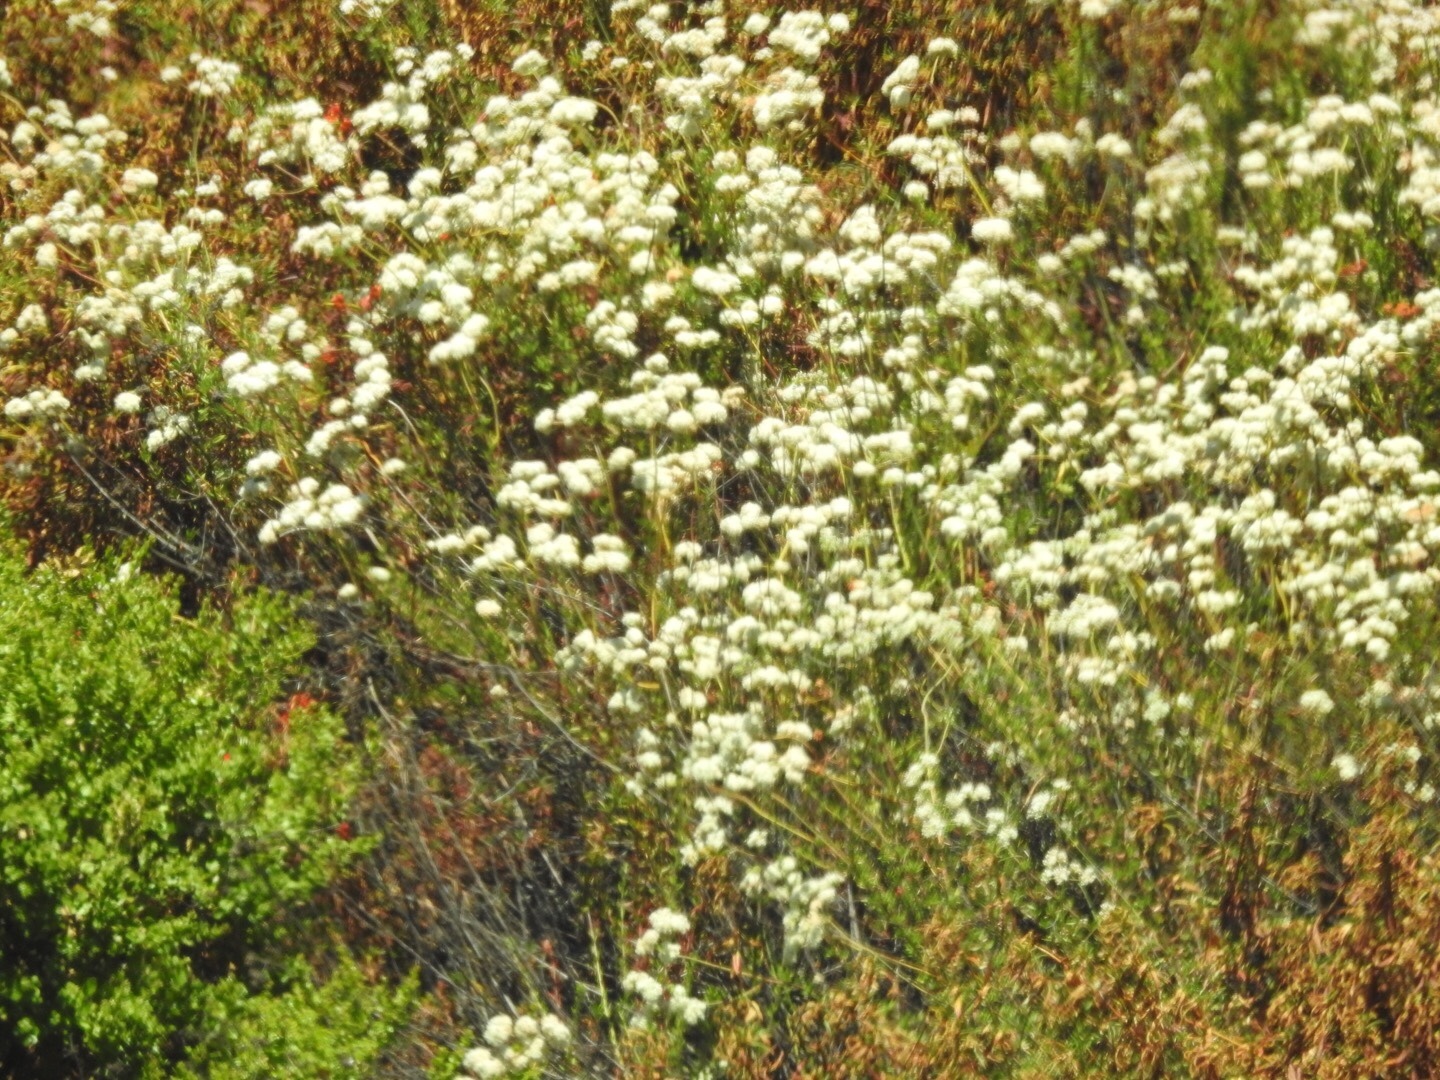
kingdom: Plantae
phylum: Tracheophyta
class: Magnoliopsida
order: Caryophyllales
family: Polygonaceae
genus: Eriogonum
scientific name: Eriogonum fasciculatum
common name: California wild buckwheat
